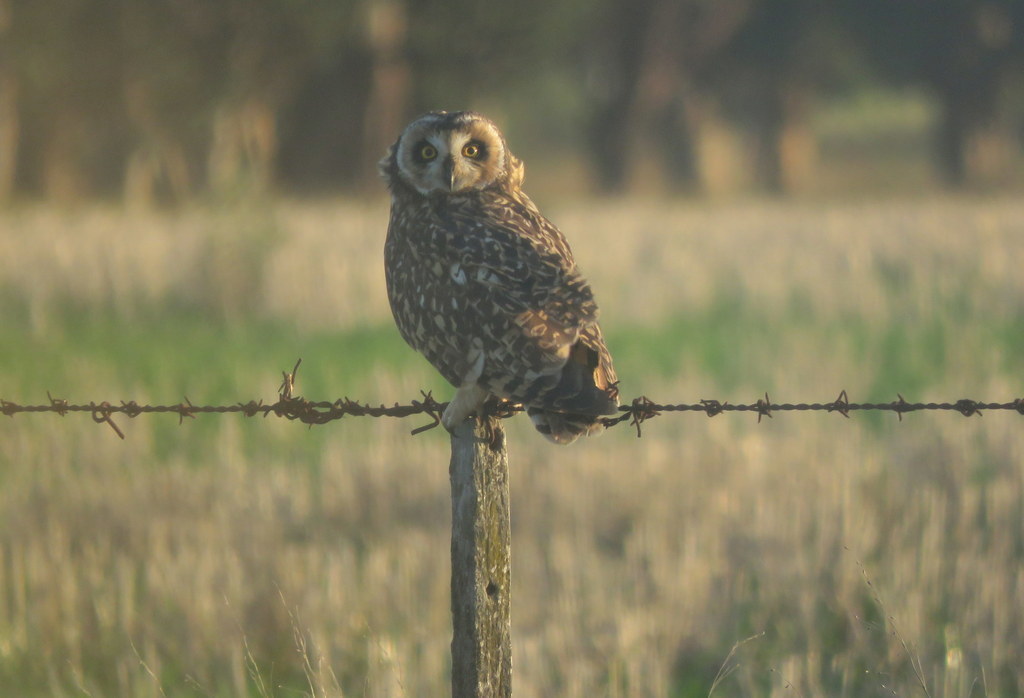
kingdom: Animalia
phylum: Chordata
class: Aves
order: Strigiformes
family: Strigidae
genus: Asio
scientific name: Asio flammeus
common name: Short-eared owl
